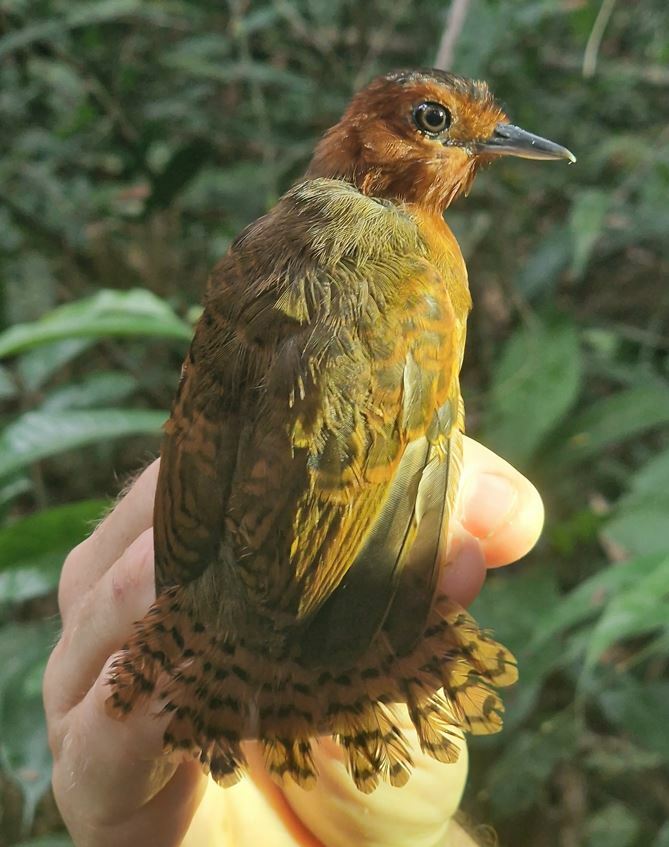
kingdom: Animalia
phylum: Chordata
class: Aves
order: Passeriformes
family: Thamnophilidae
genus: Gymnopithys
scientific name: Gymnopithys salvini
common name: White-throated antbird
